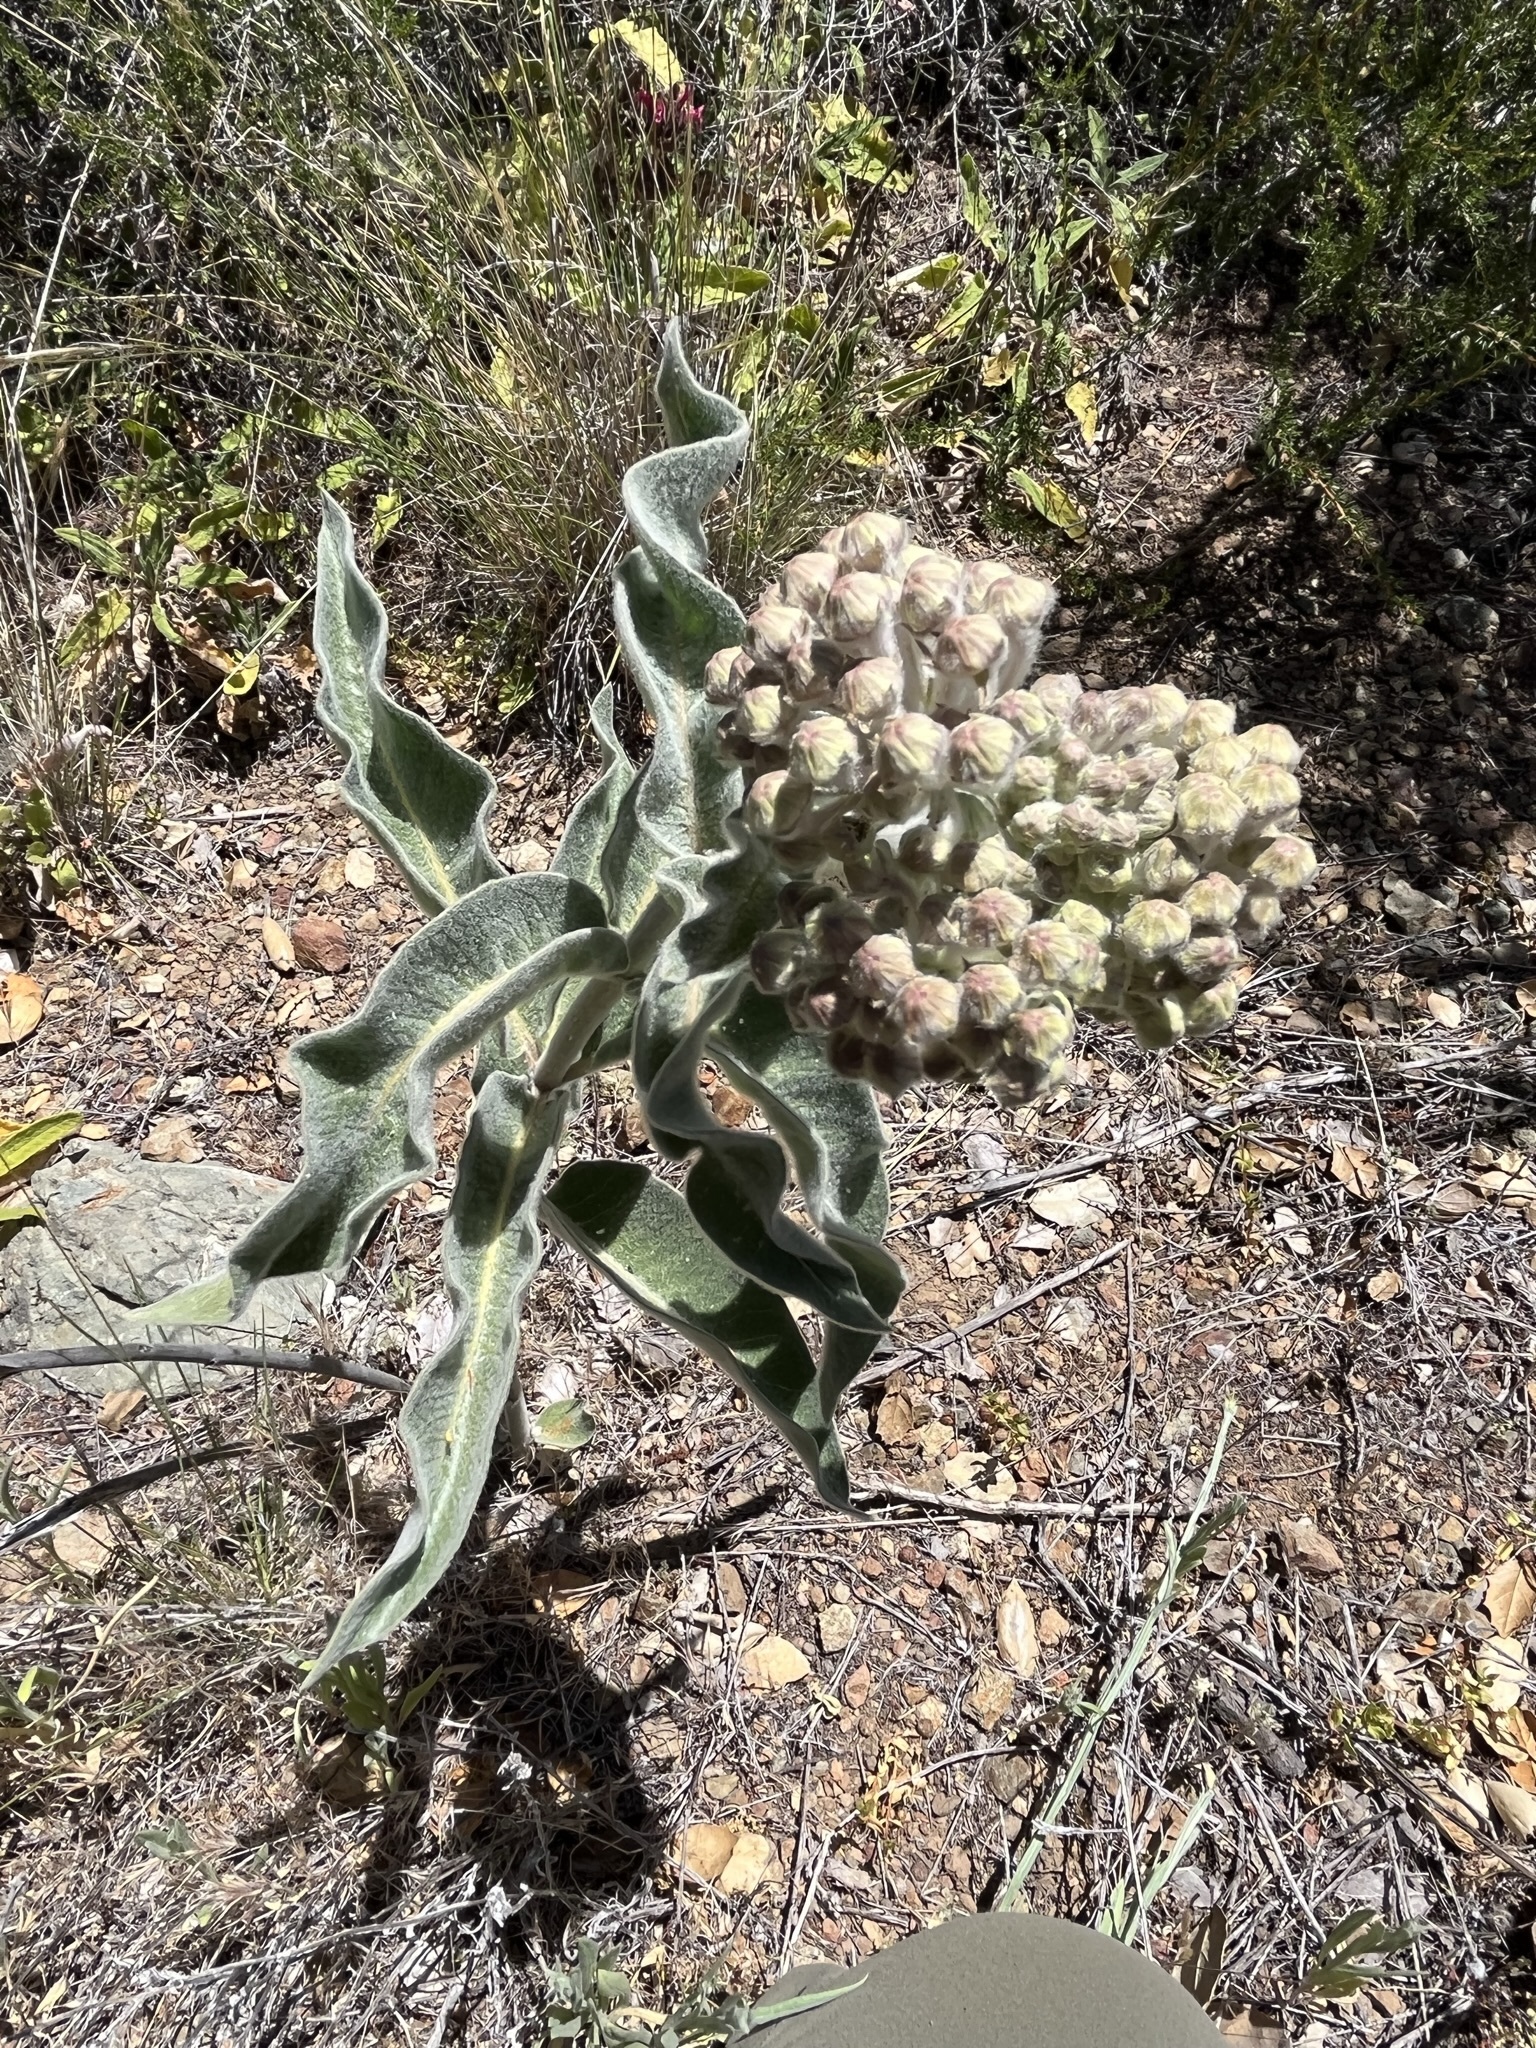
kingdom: Plantae
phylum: Tracheophyta
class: Magnoliopsida
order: Gentianales
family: Apocynaceae
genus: Asclepias
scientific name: Asclepias eriocarpa
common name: Indian milkweed
